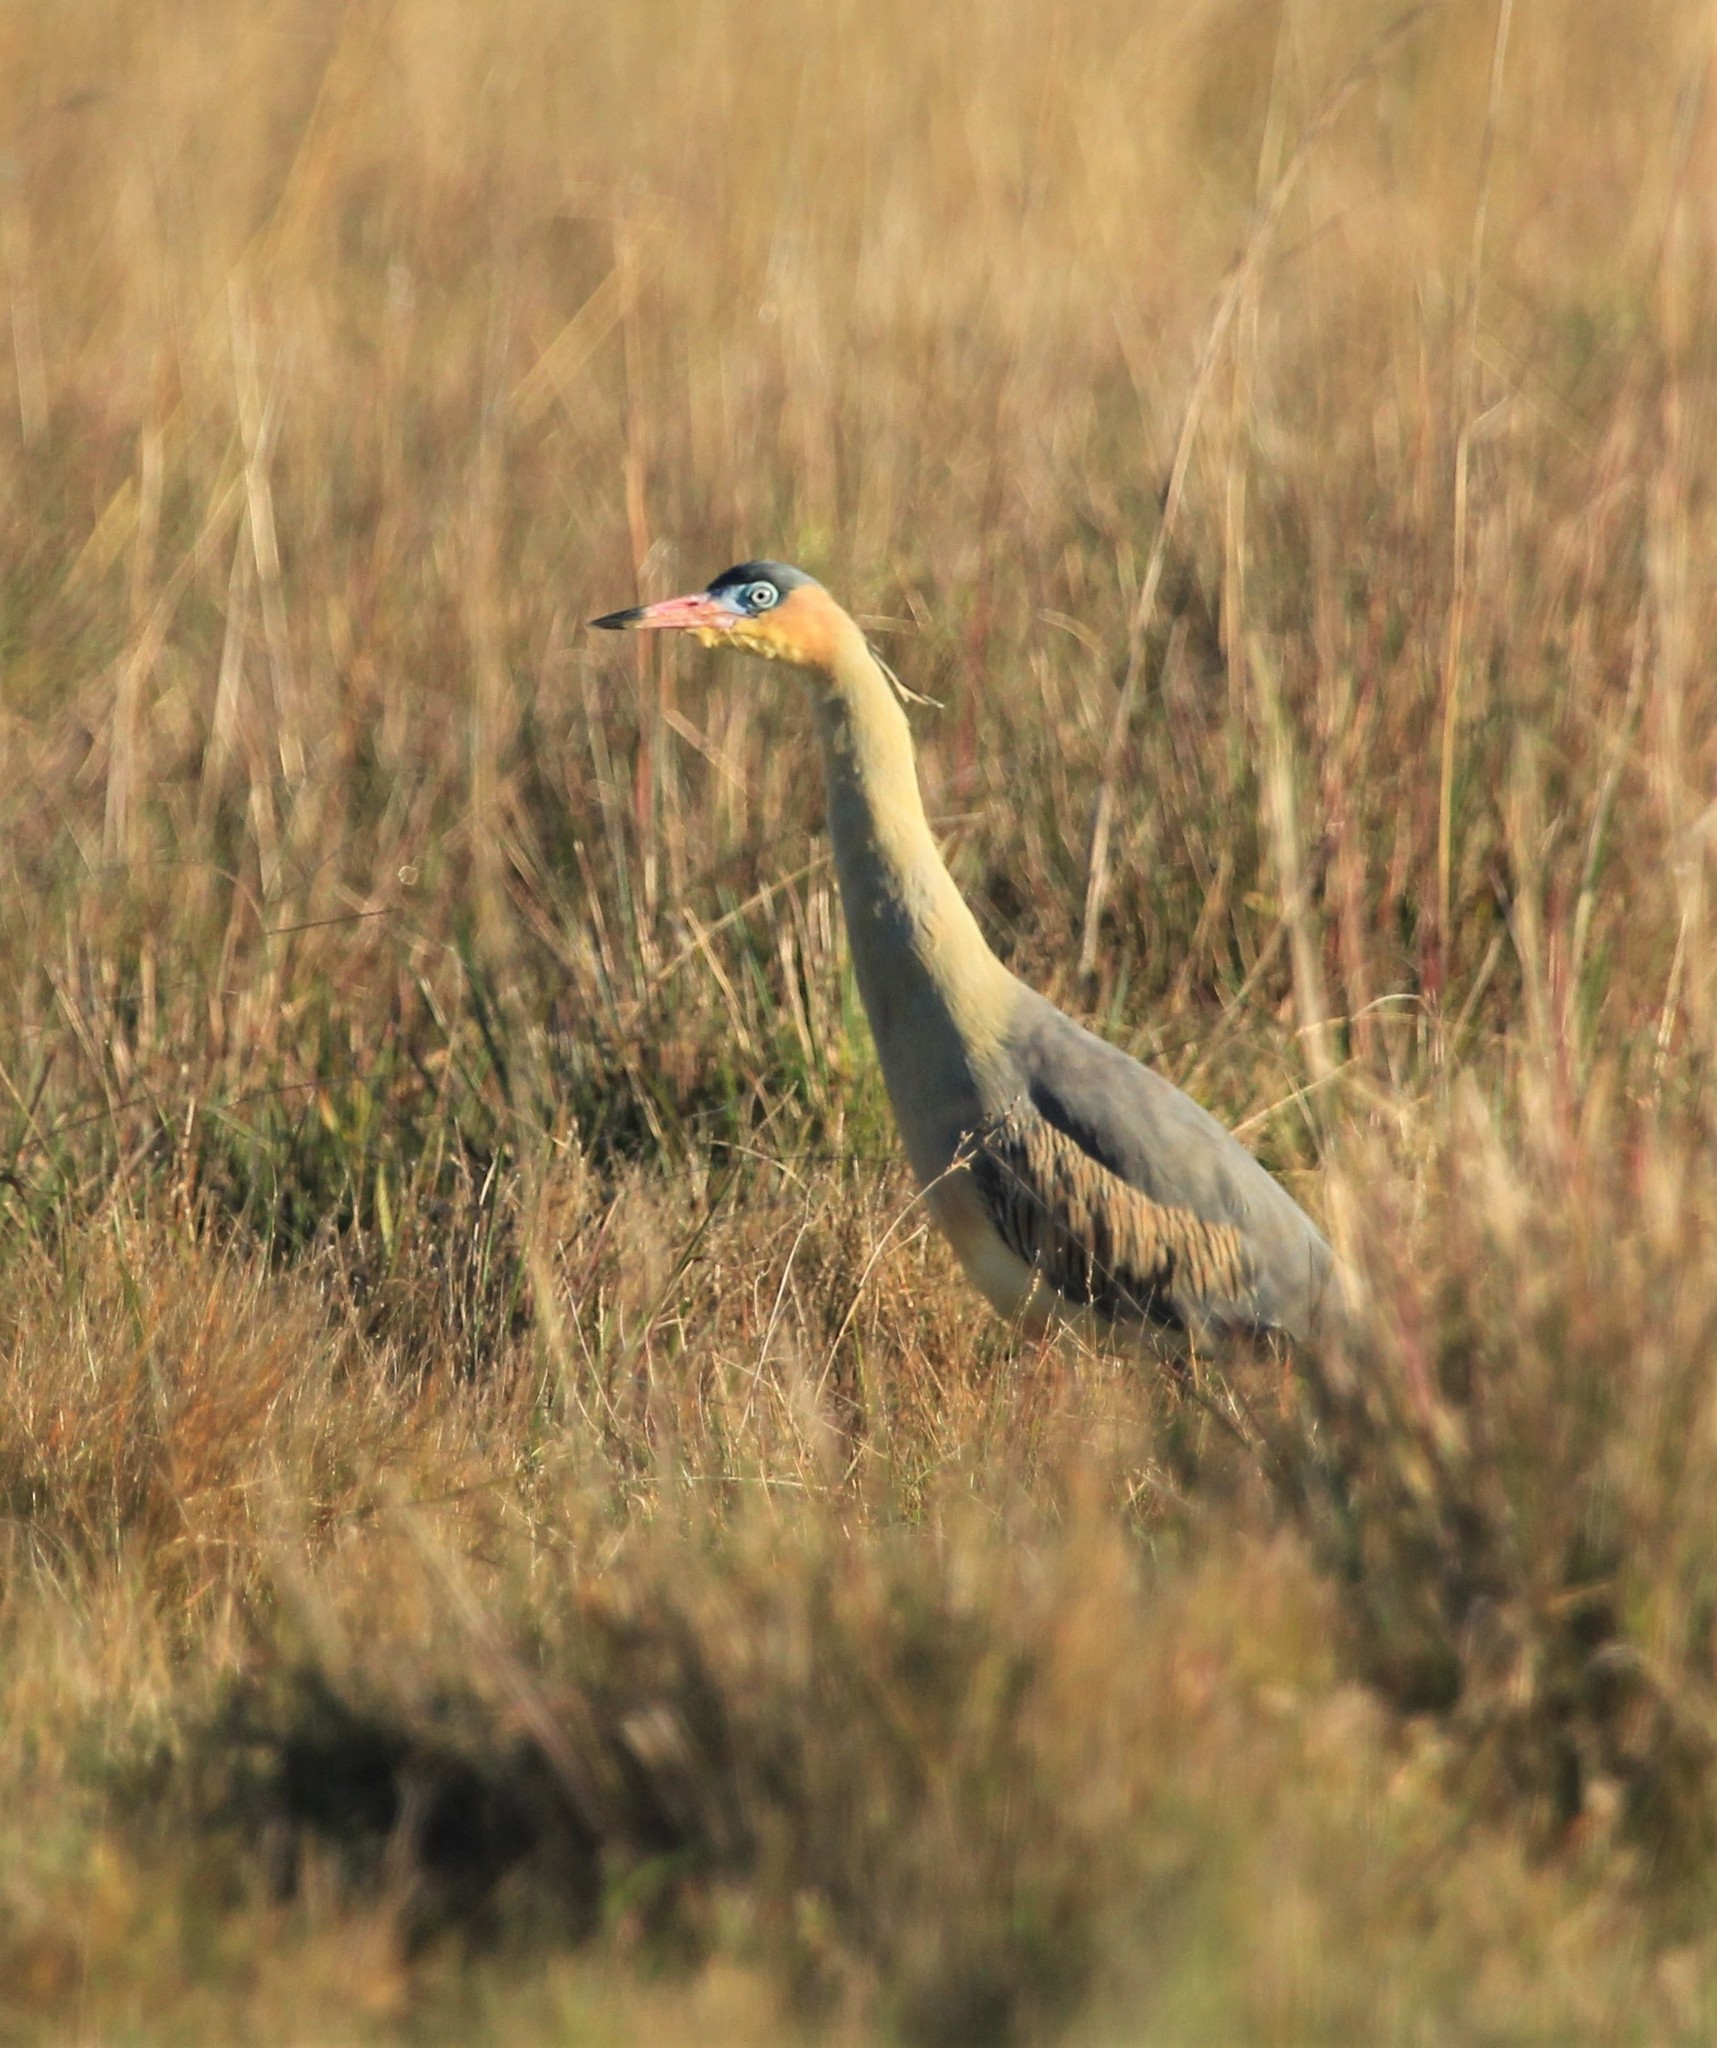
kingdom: Animalia
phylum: Chordata
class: Aves
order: Pelecaniformes
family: Ardeidae
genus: Syrigma
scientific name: Syrigma sibilatrix
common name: Whistling heron
